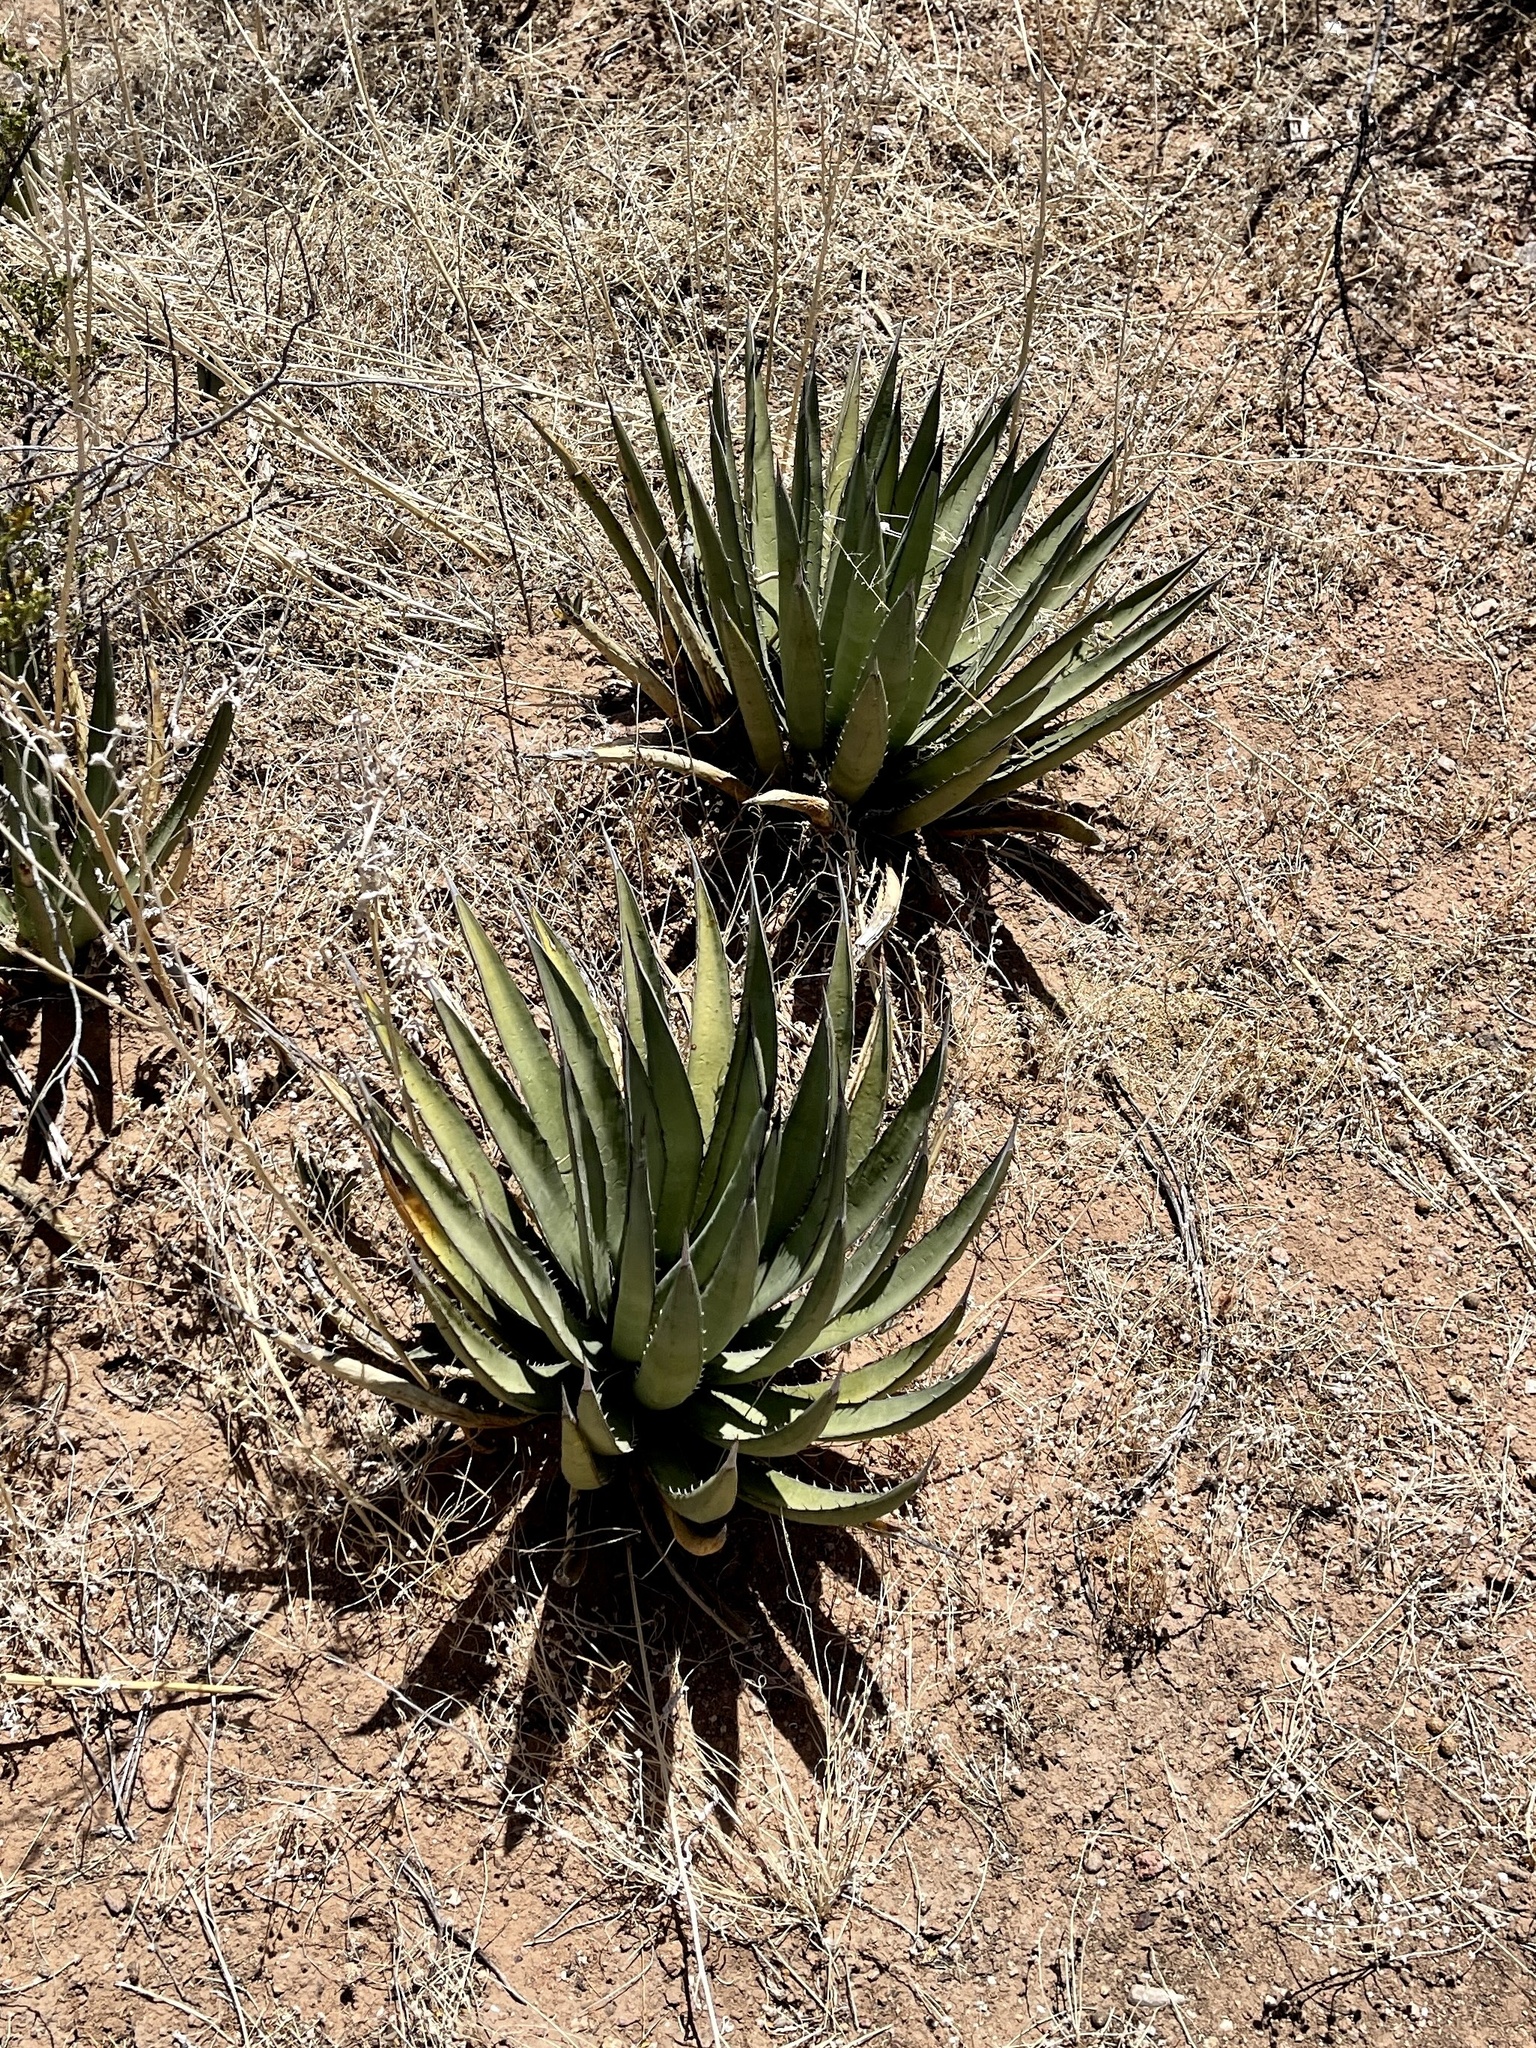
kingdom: Plantae
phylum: Tracheophyta
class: Liliopsida
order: Asparagales
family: Asparagaceae
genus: Agave
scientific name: Agave lechuguilla
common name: Lecheguilla agave
